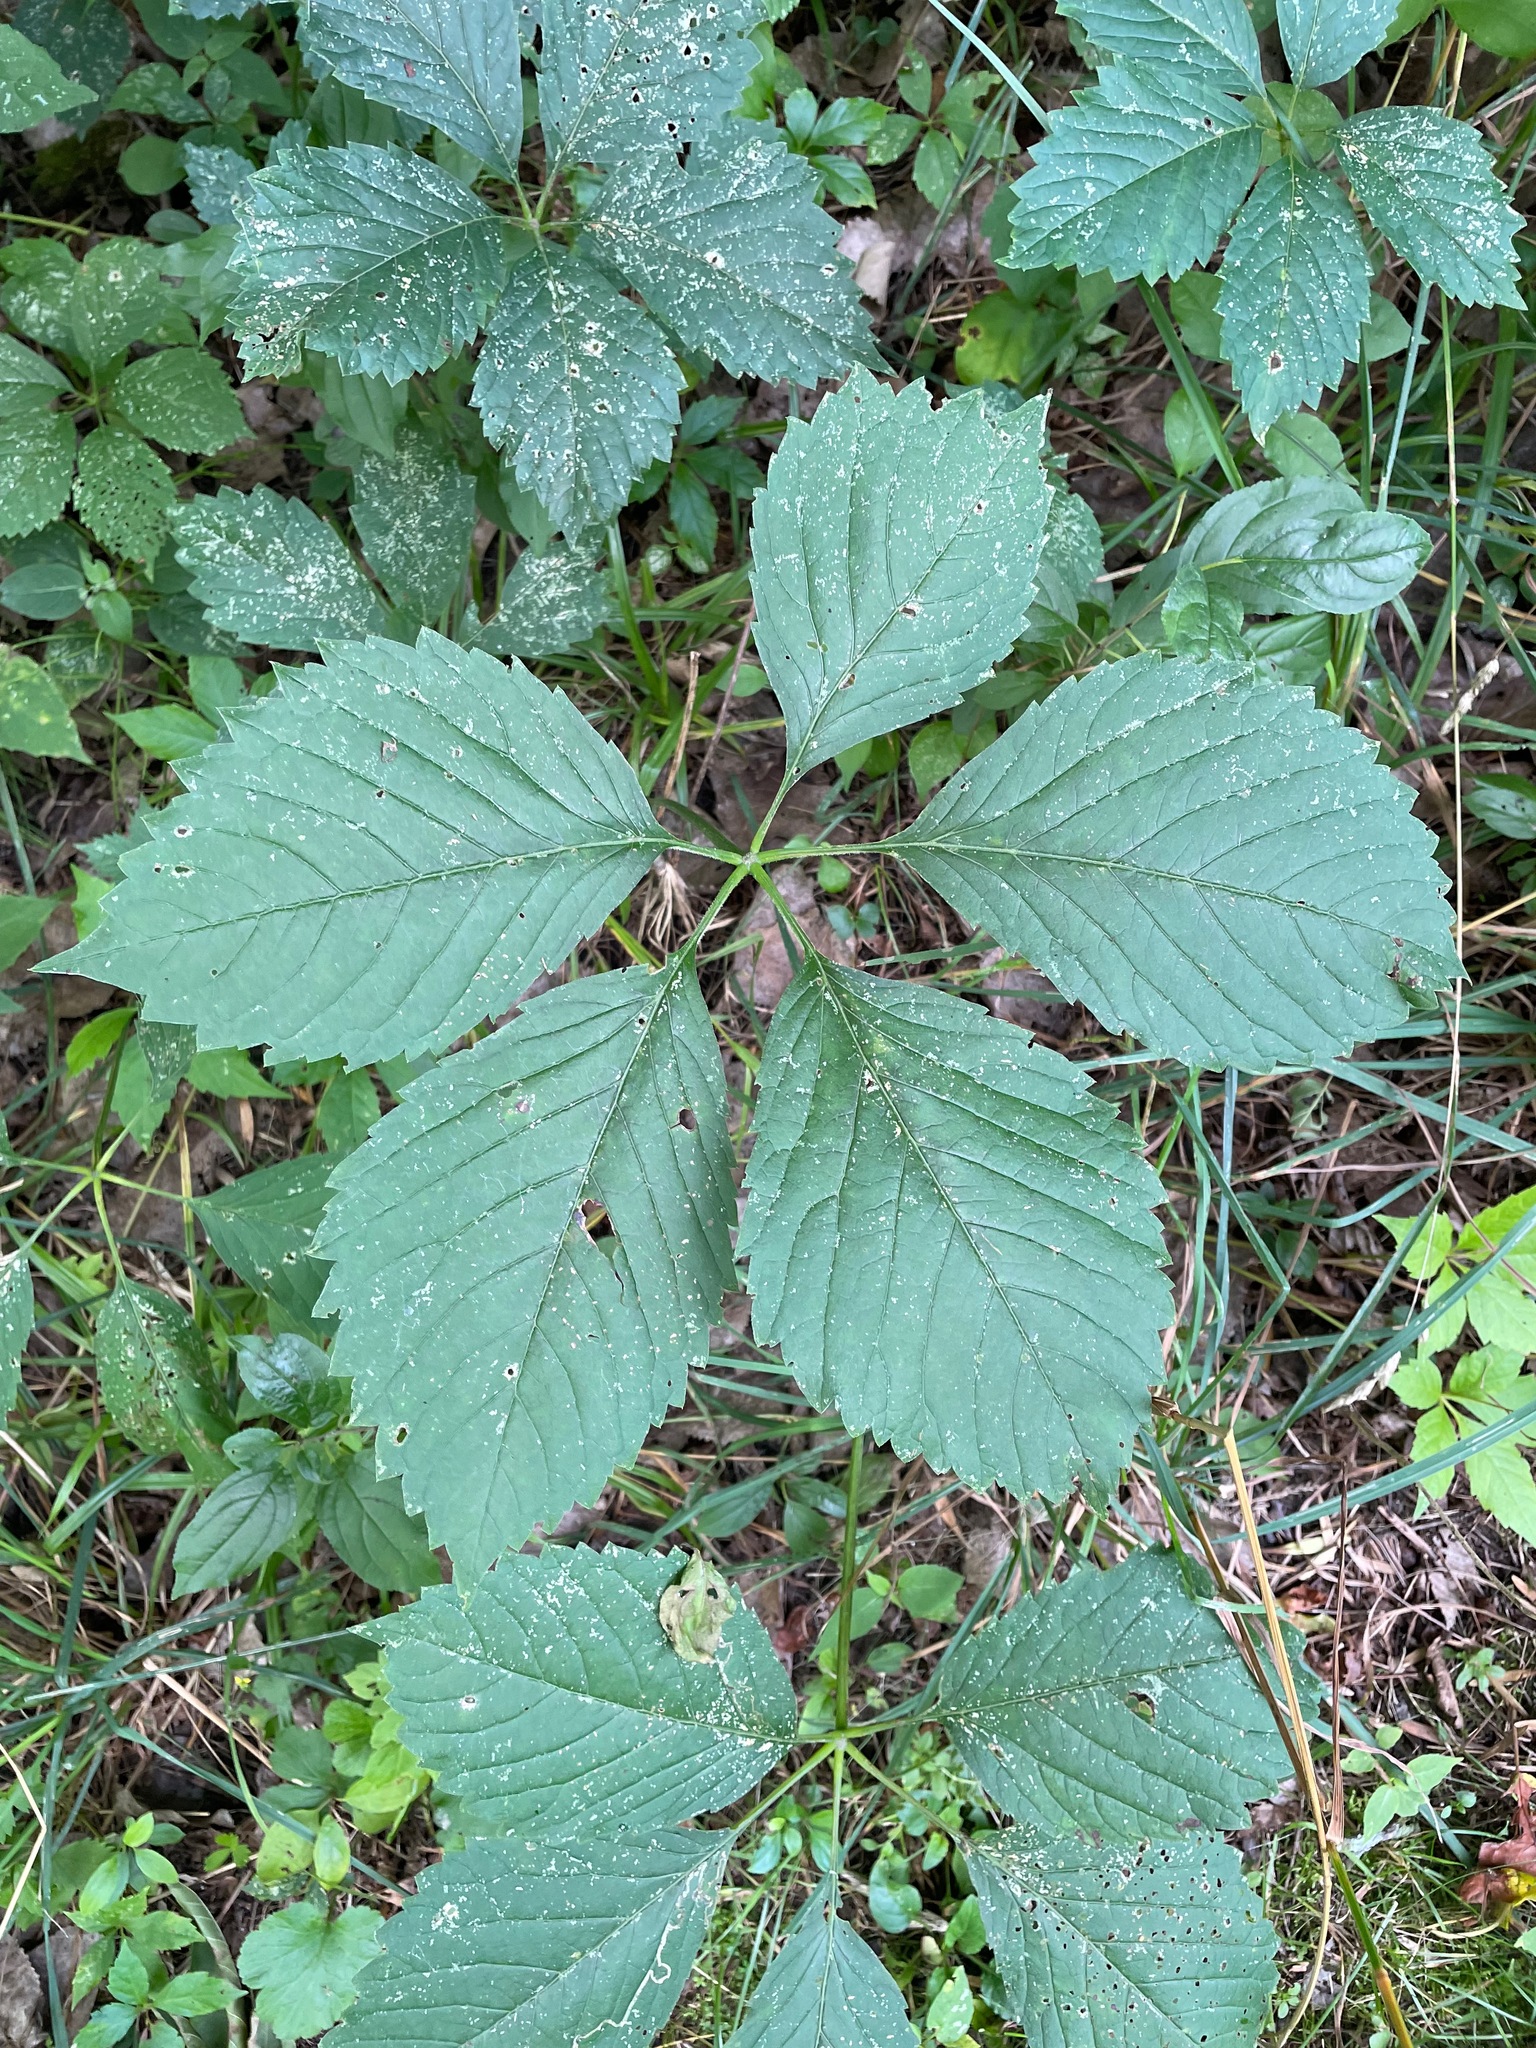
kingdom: Plantae
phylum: Tracheophyta
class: Magnoliopsida
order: Vitales
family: Vitaceae
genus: Parthenocissus
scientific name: Parthenocissus inserta
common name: False virginia-creeper
